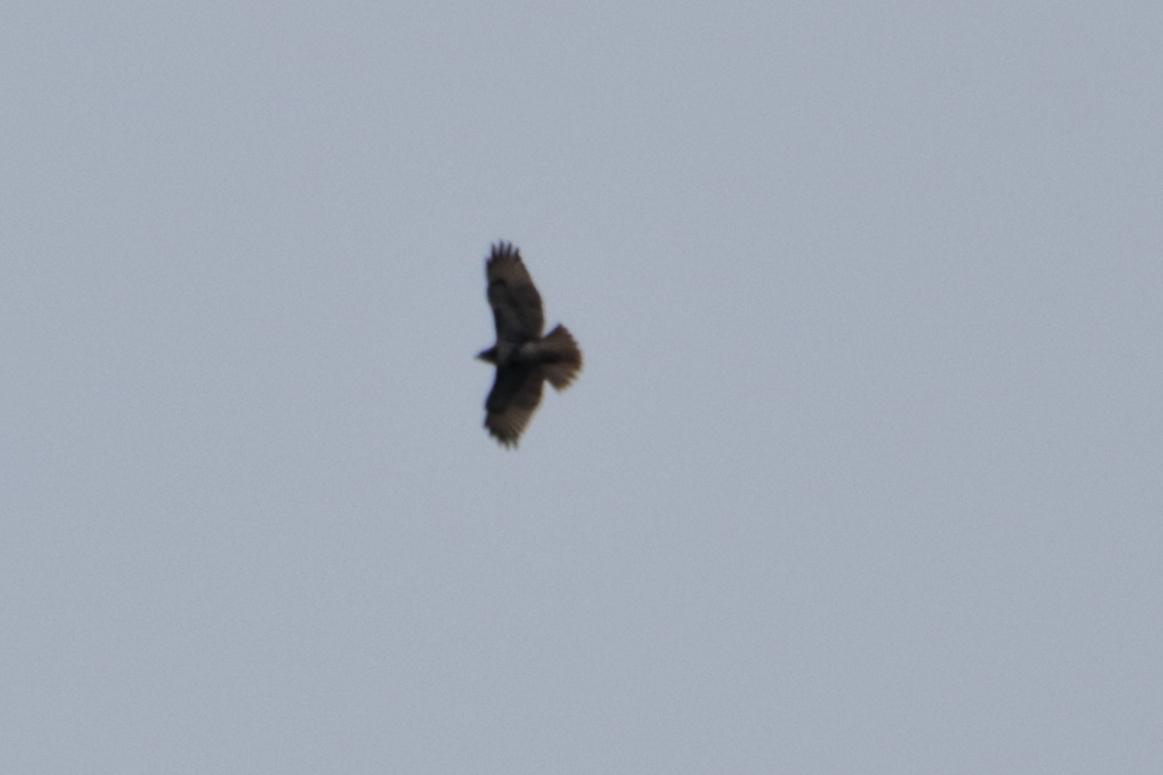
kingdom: Animalia
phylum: Chordata
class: Aves
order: Accipitriformes
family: Accipitridae
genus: Buteo
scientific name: Buteo jamaicensis
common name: Red-tailed hawk
